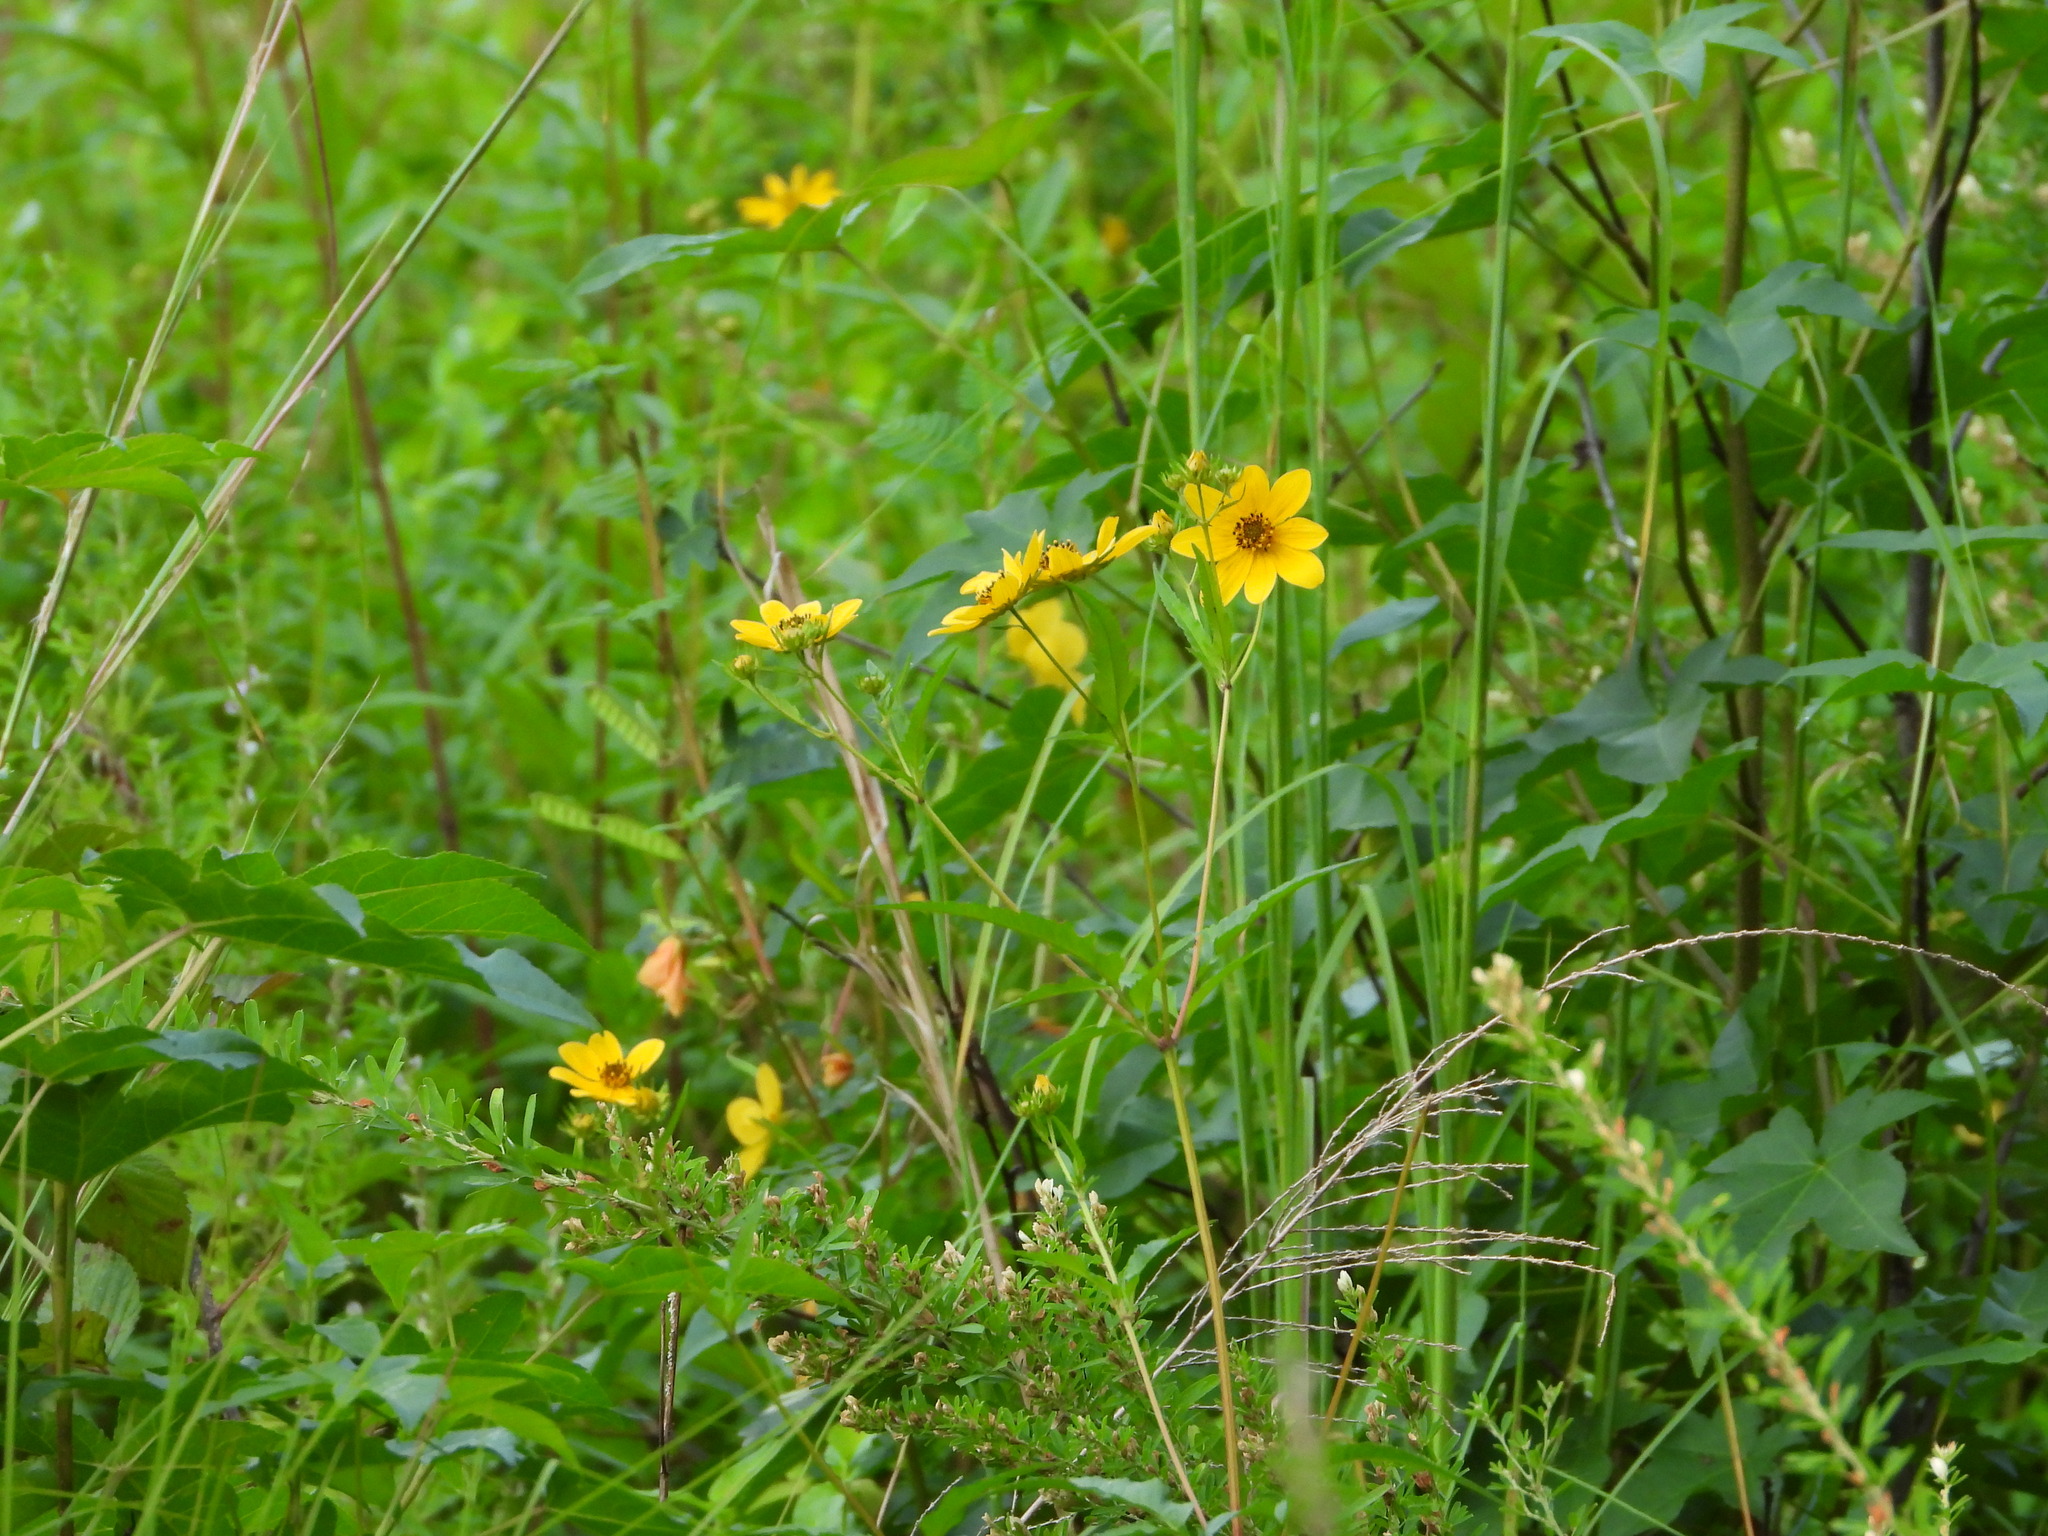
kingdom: Plantae
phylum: Tracheophyta
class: Magnoliopsida
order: Asterales
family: Asteraceae
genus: Bidens
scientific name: Bidens aristosa
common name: Western tickseed
